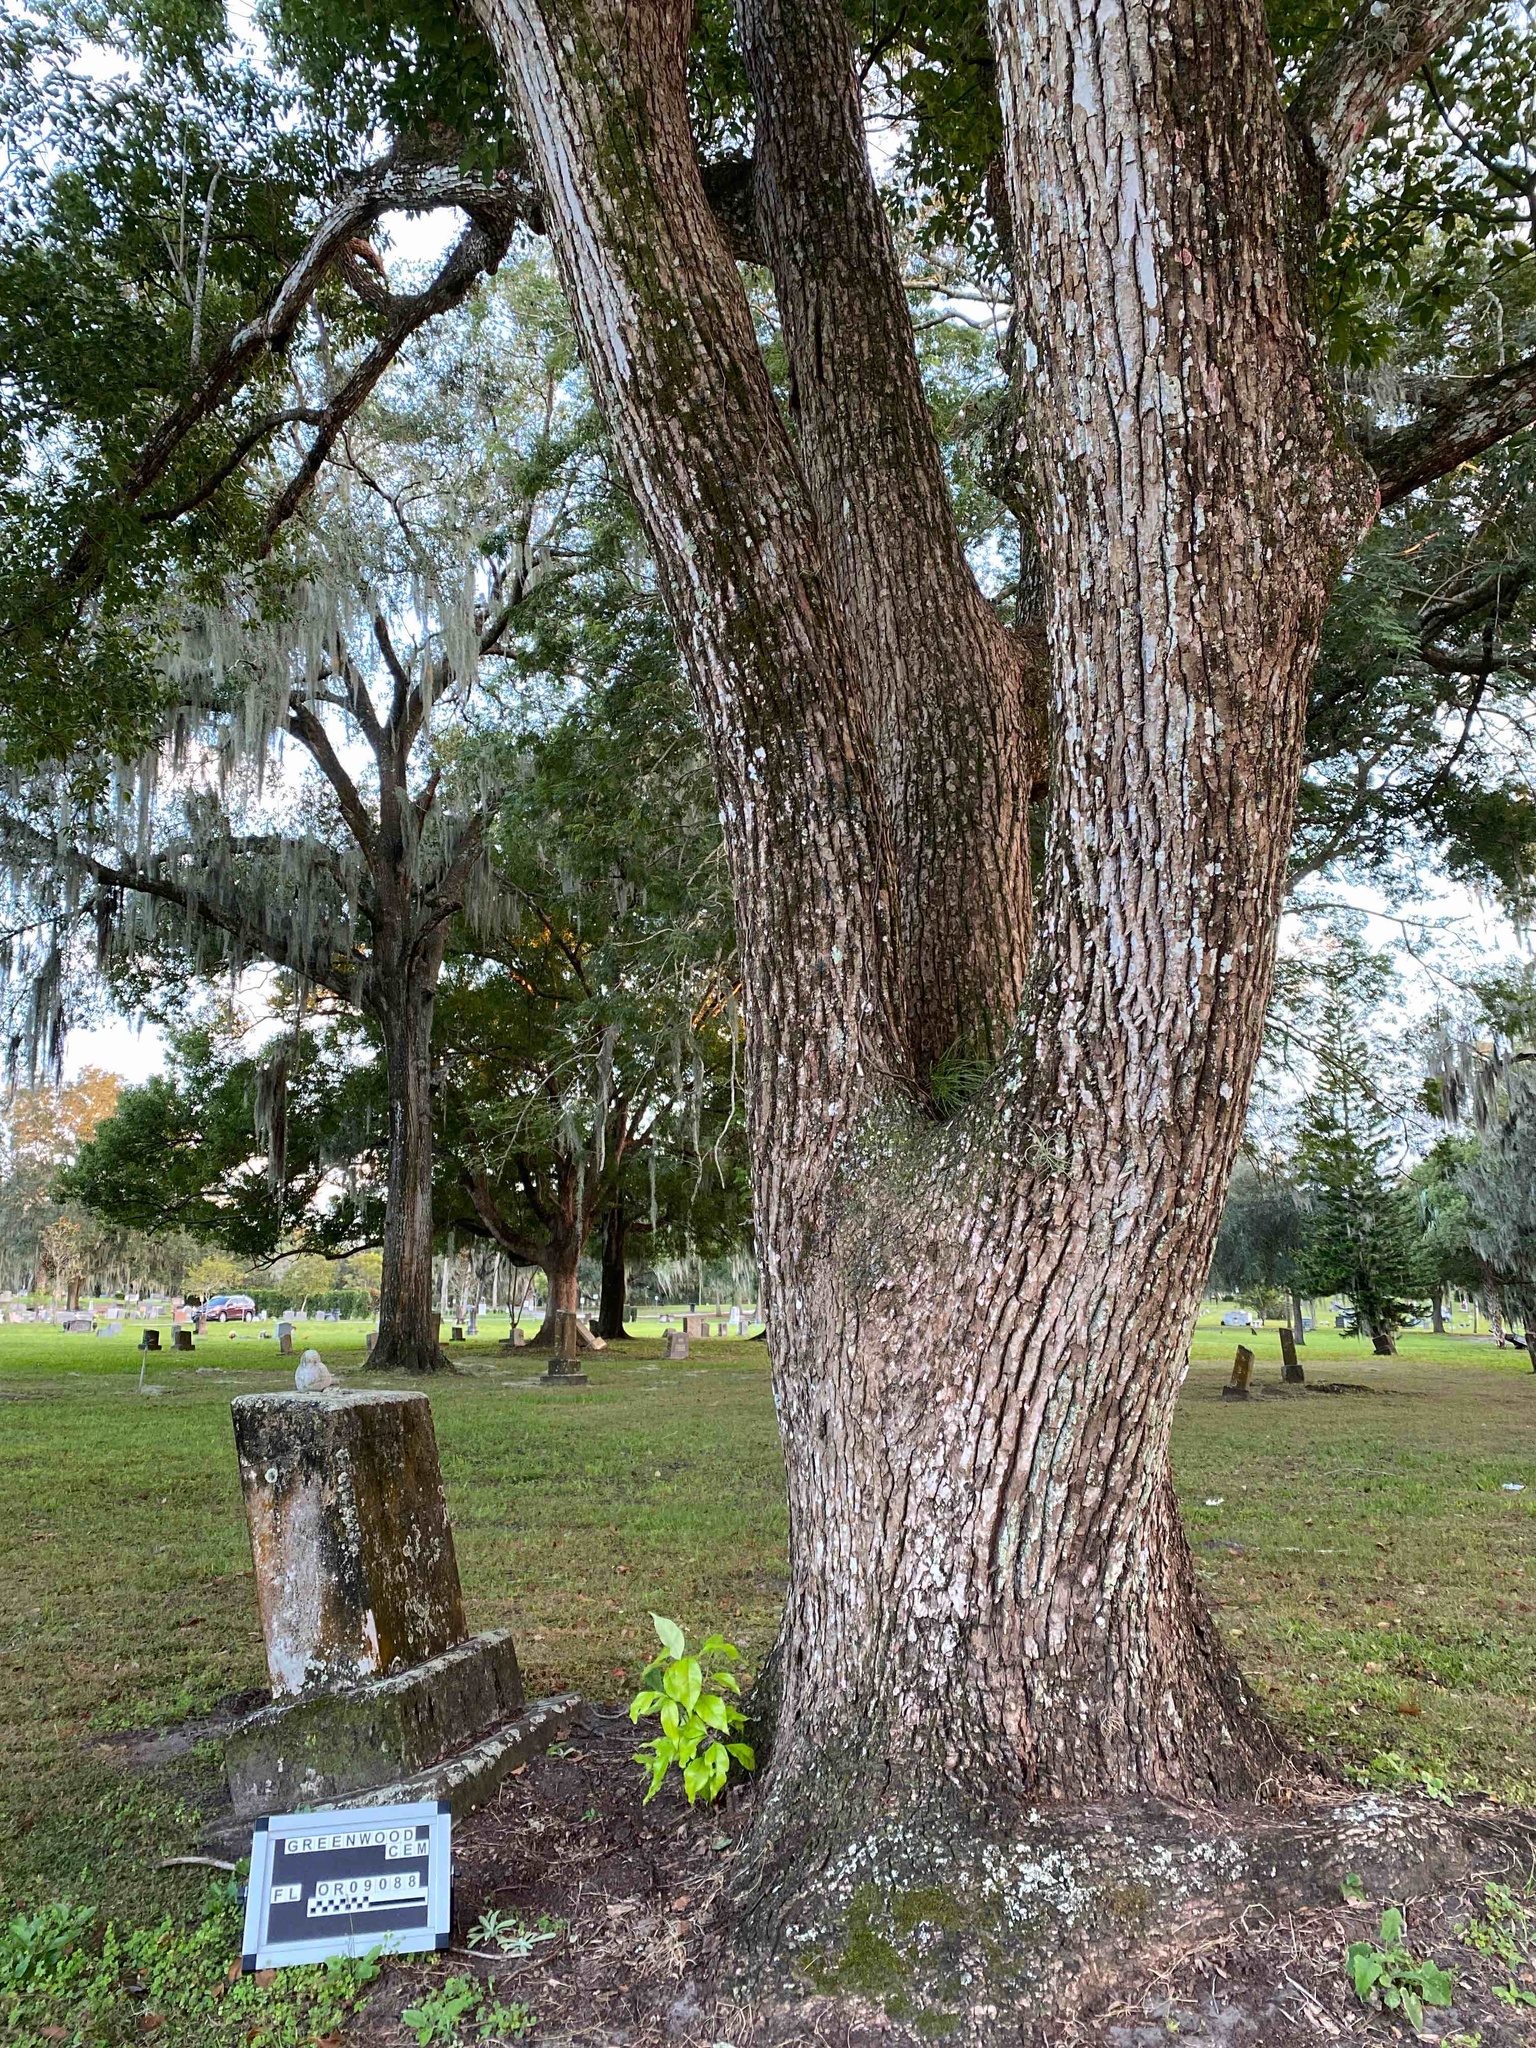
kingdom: Plantae
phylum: Tracheophyta
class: Magnoliopsida
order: Fagales
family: Fagaceae
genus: Quercus
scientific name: Quercus virginiana
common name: Southern live oak
